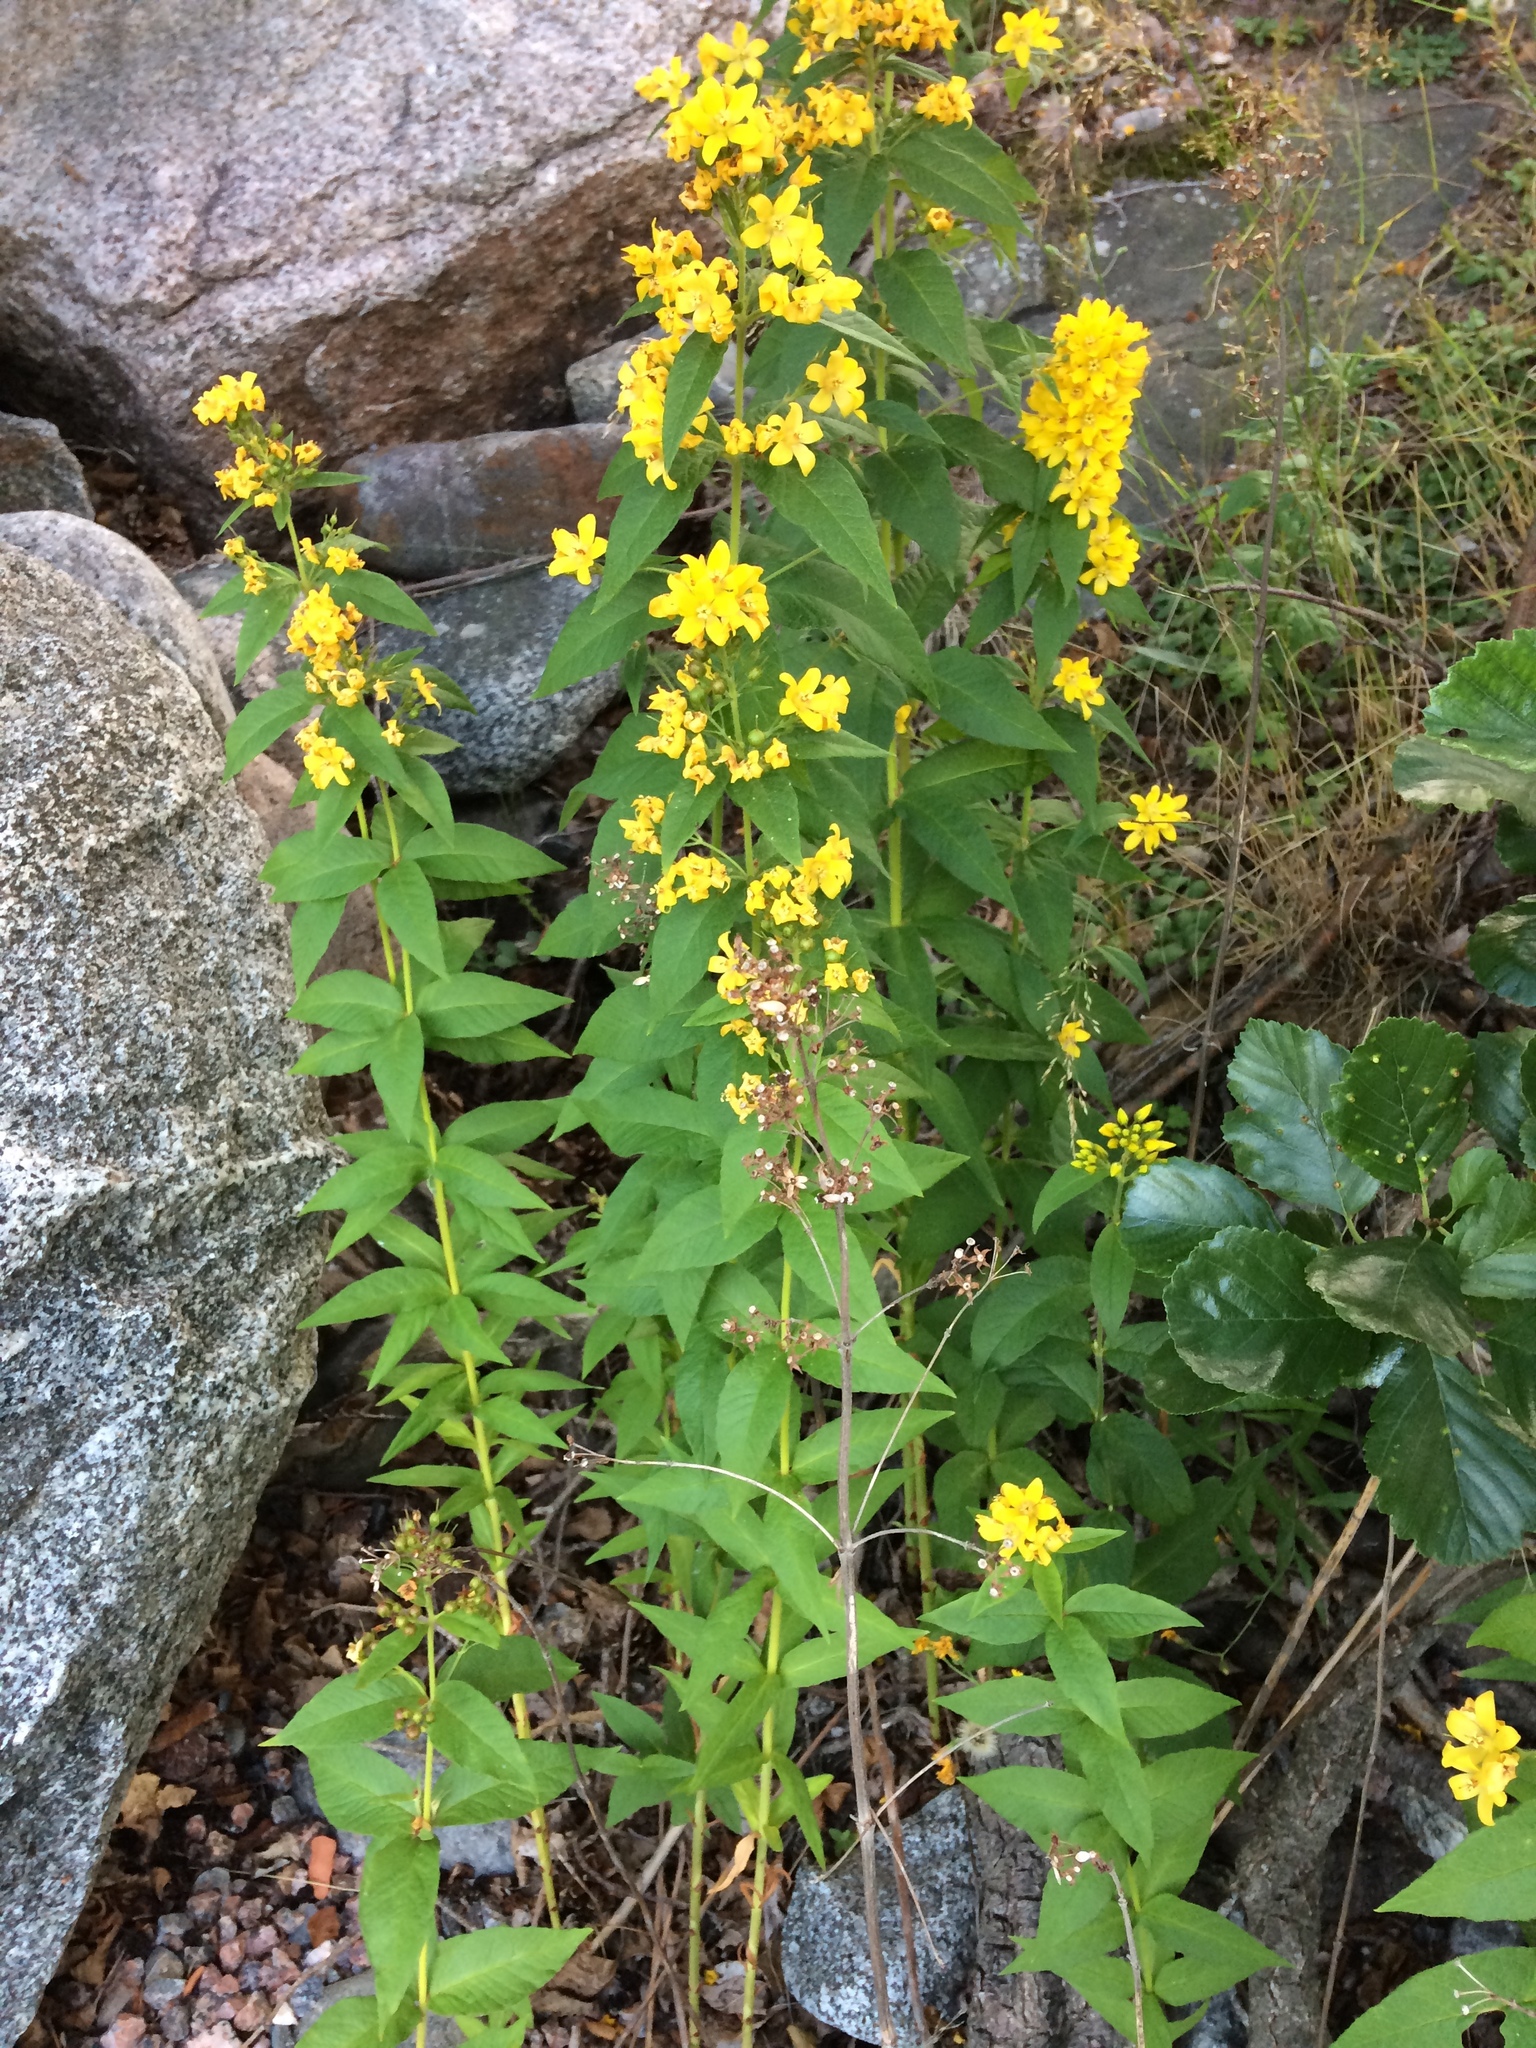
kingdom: Plantae
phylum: Tracheophyta
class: Magnoliopsida
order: Ericales
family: Primulaceae
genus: Lysimachia
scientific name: Lysimachia vulgaris
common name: Yellow loosestrife
